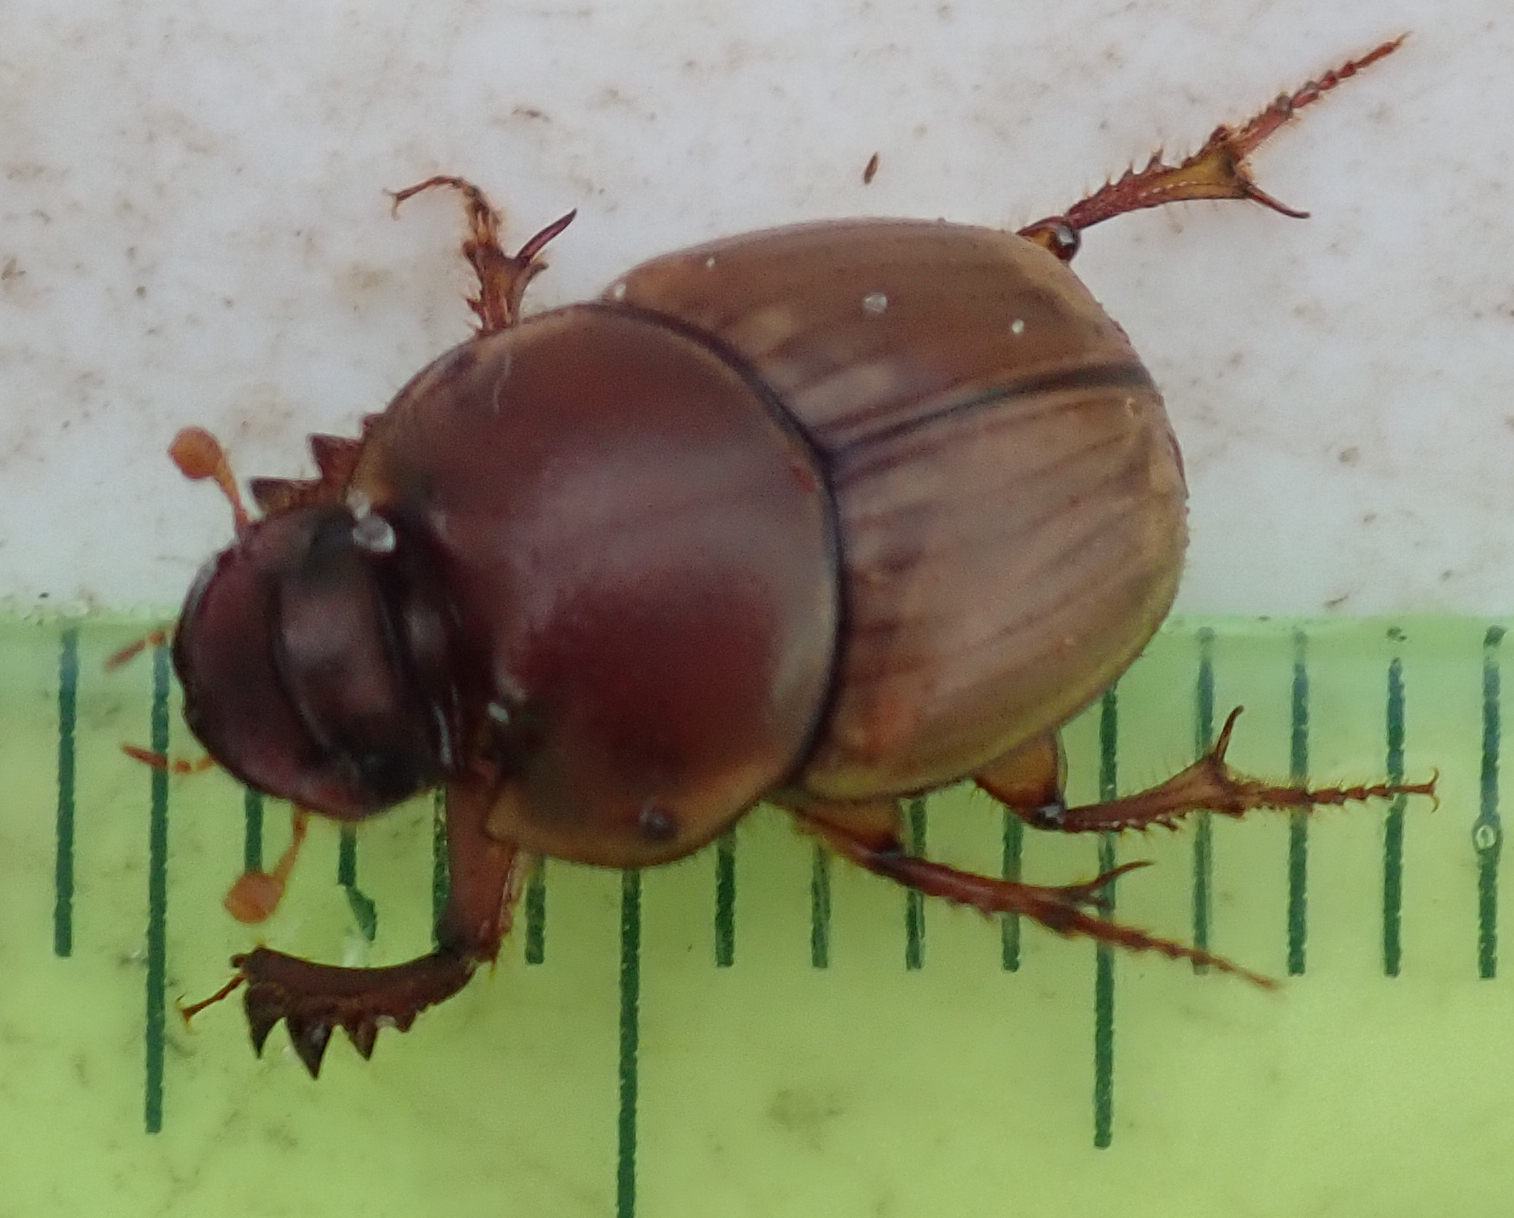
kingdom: Animalia
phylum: Arthropoda
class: Insecta
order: Coleoptera
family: Scarabaeidae
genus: Digitonthophagus
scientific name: Digitonthophagus gazella
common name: Brown dung beetle
